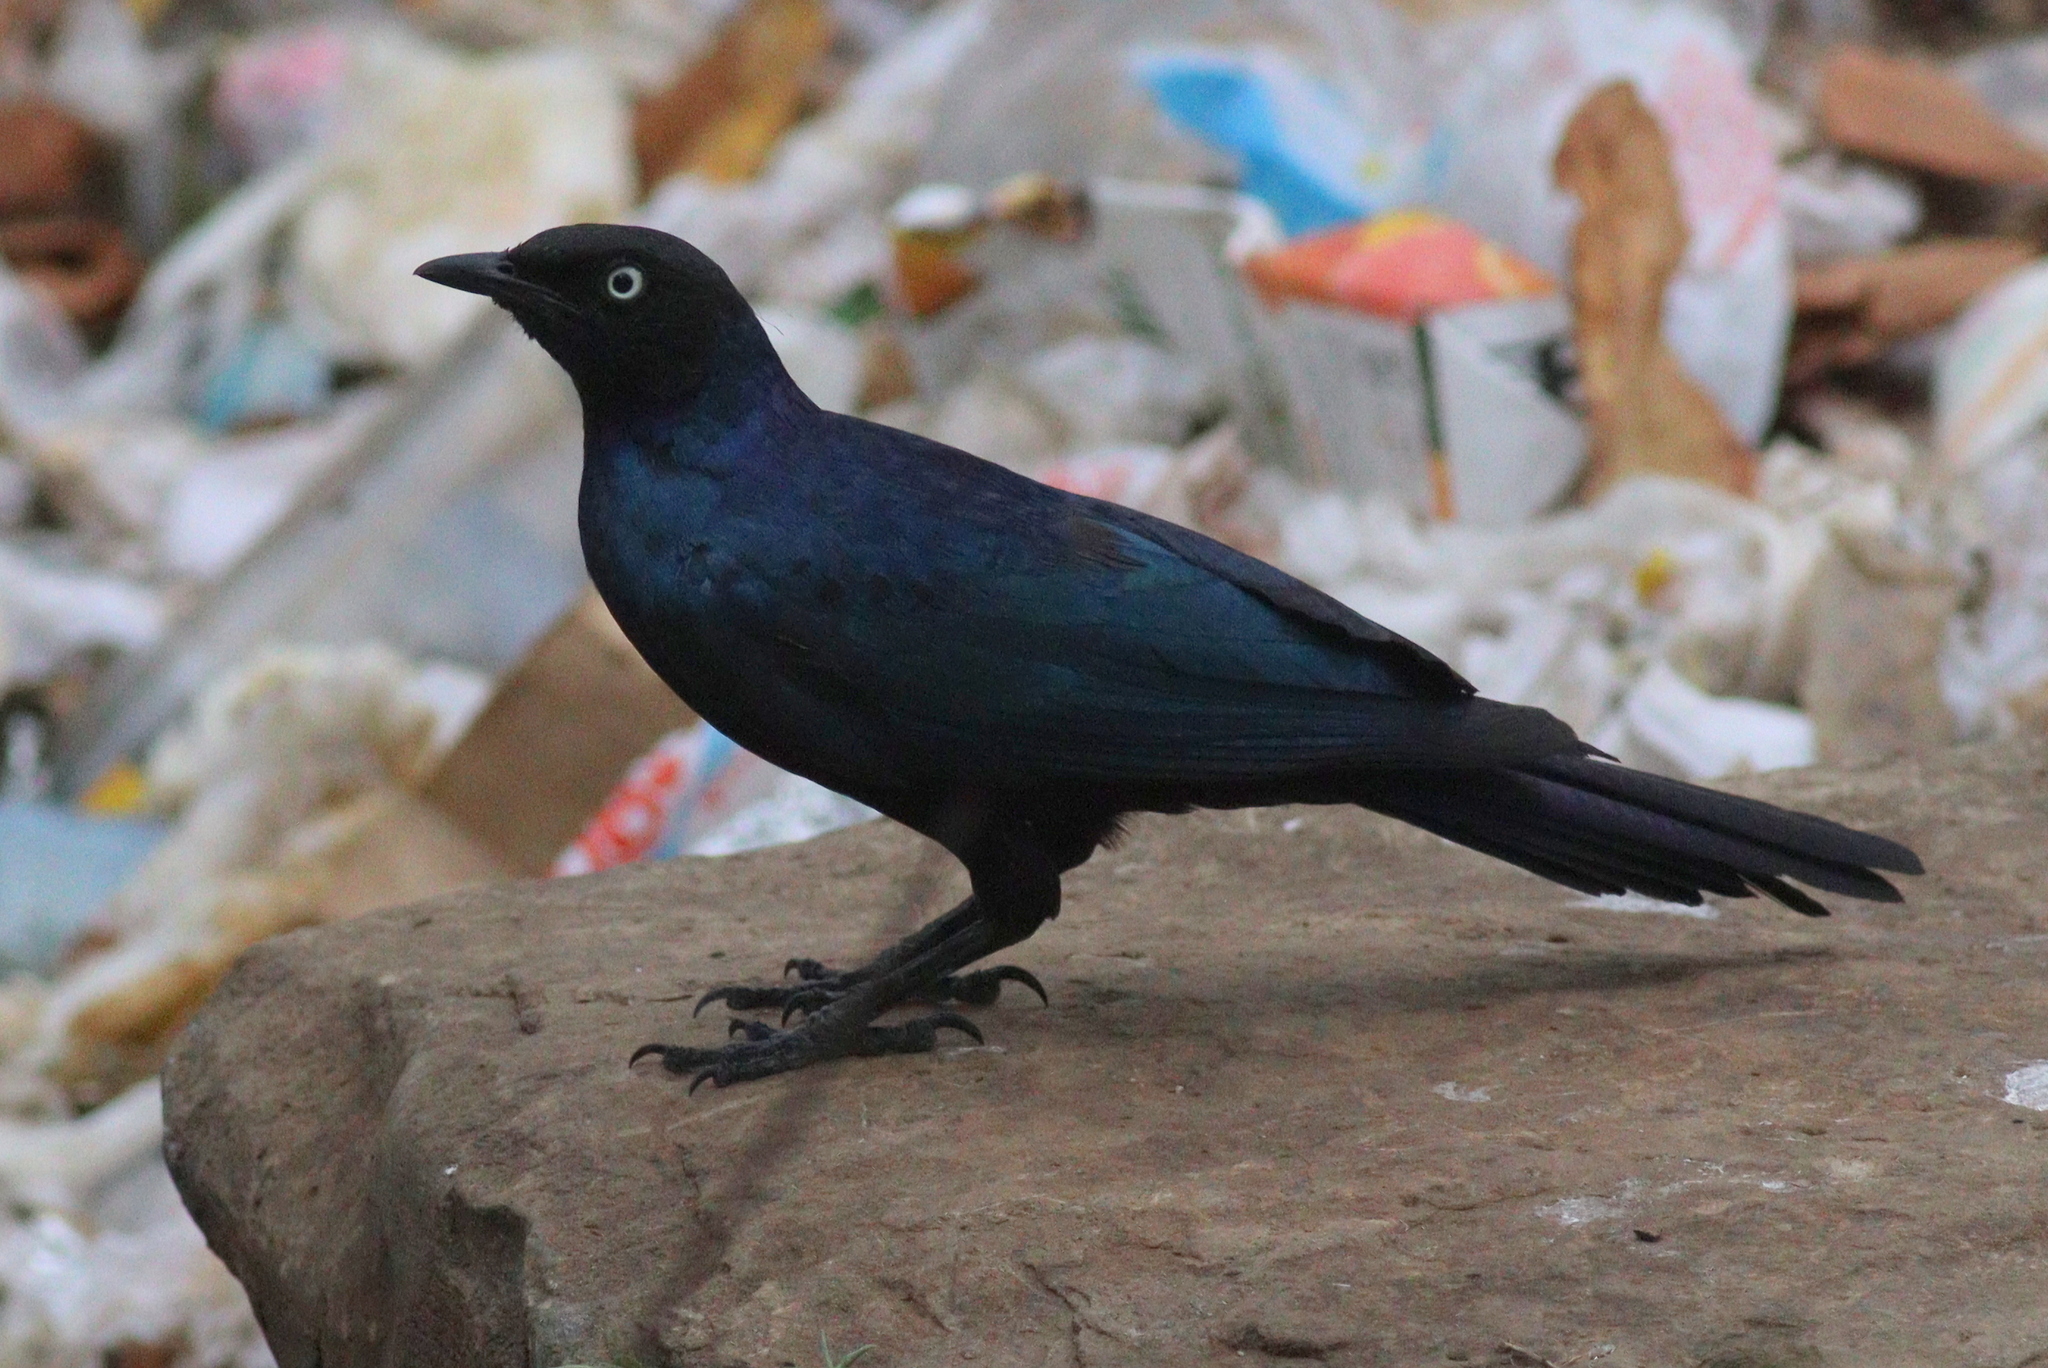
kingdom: Animalia
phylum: Chordata
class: Aves
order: Passeriformes
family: Sturnidae
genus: Lamprotornis
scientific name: Lamprotornis purpuroptera
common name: Rüppell's starling
